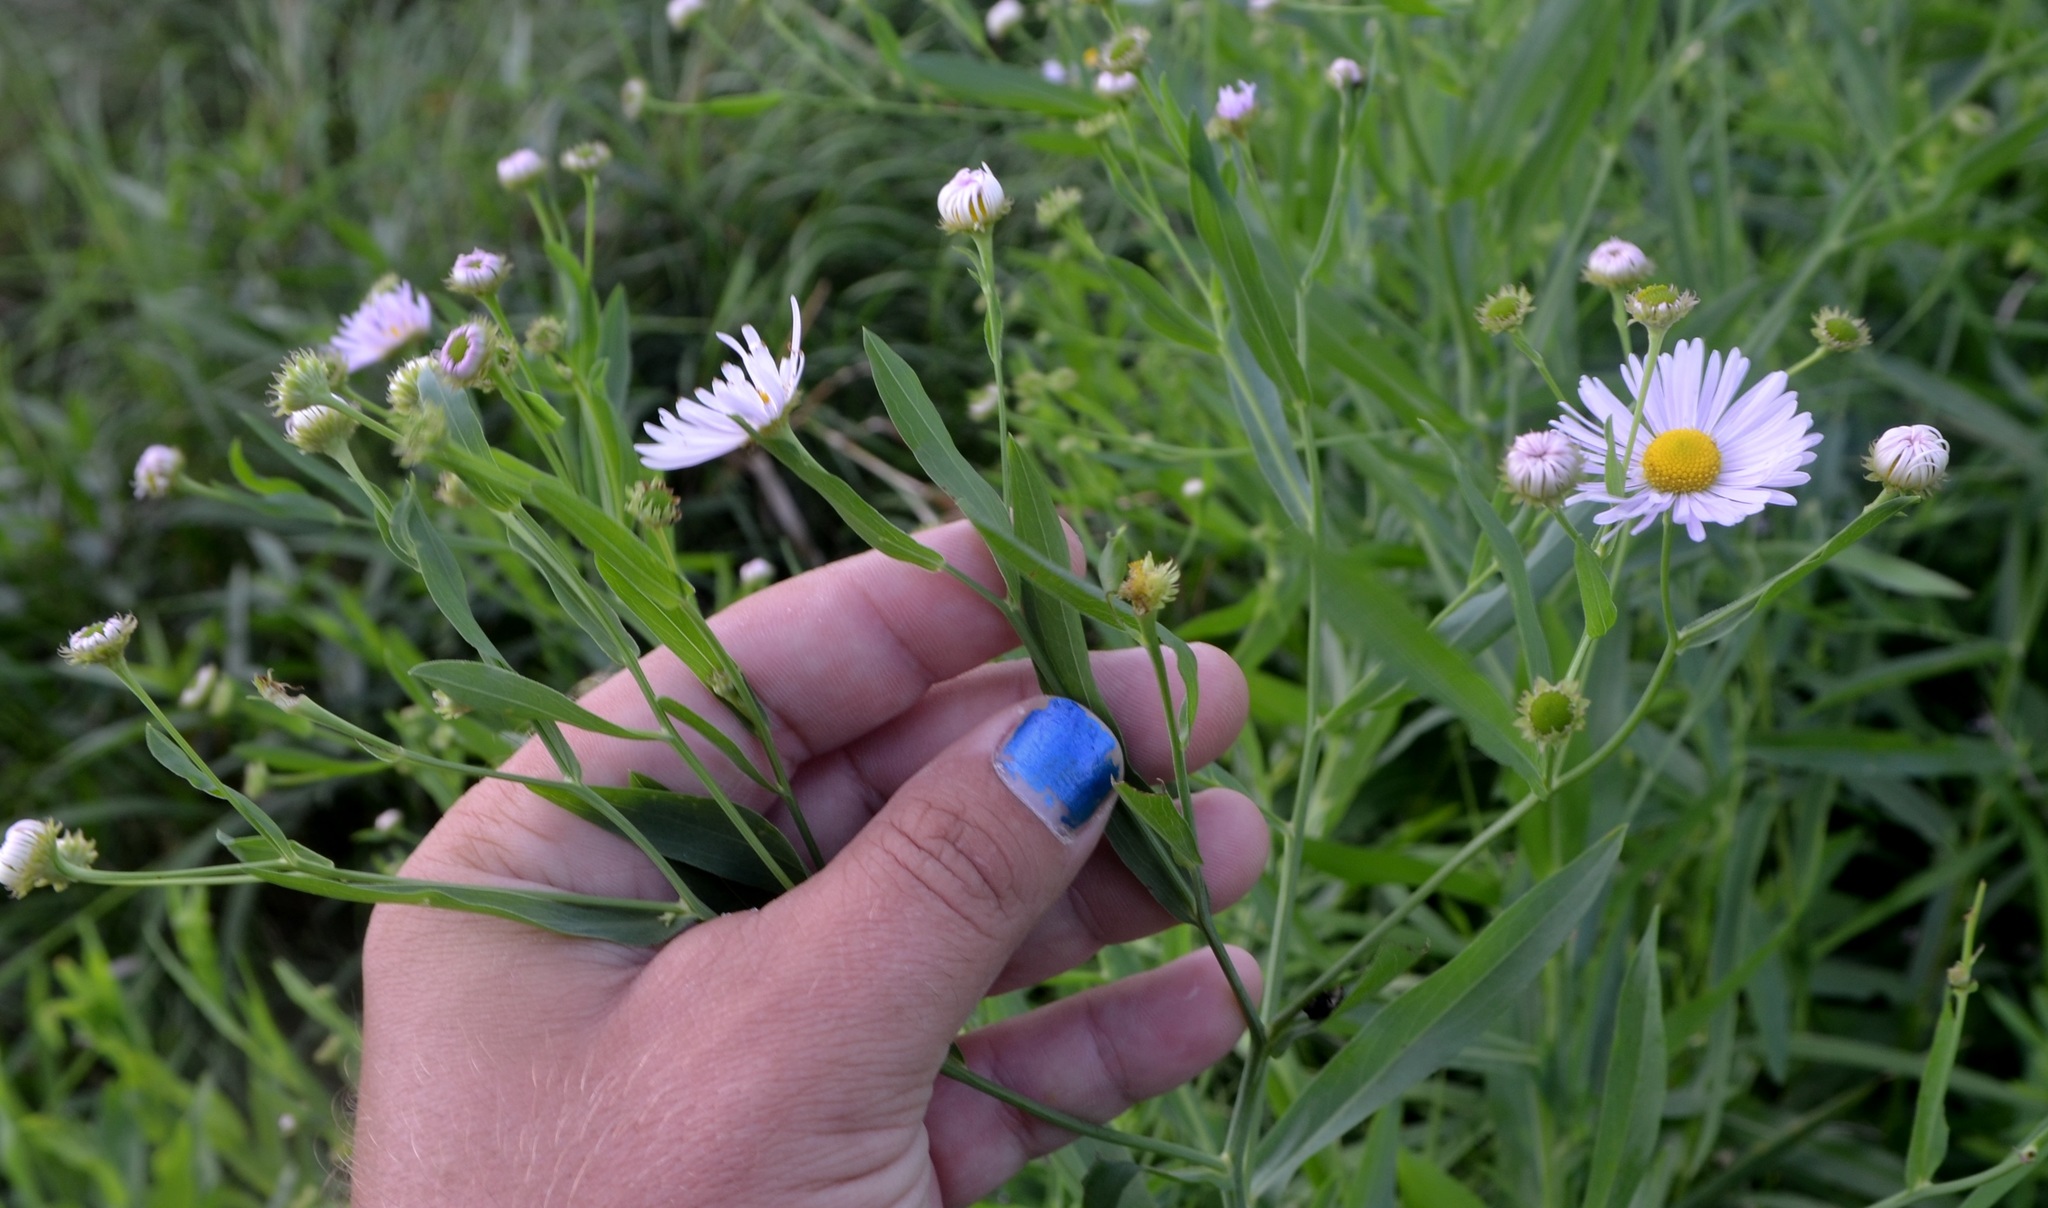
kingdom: Plantae
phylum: Tracheophyta
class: Magnoliopsida
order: Asterales
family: Asteraceae
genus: Boltonia
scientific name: Boltonia decurrens
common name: Decurrent false aster
